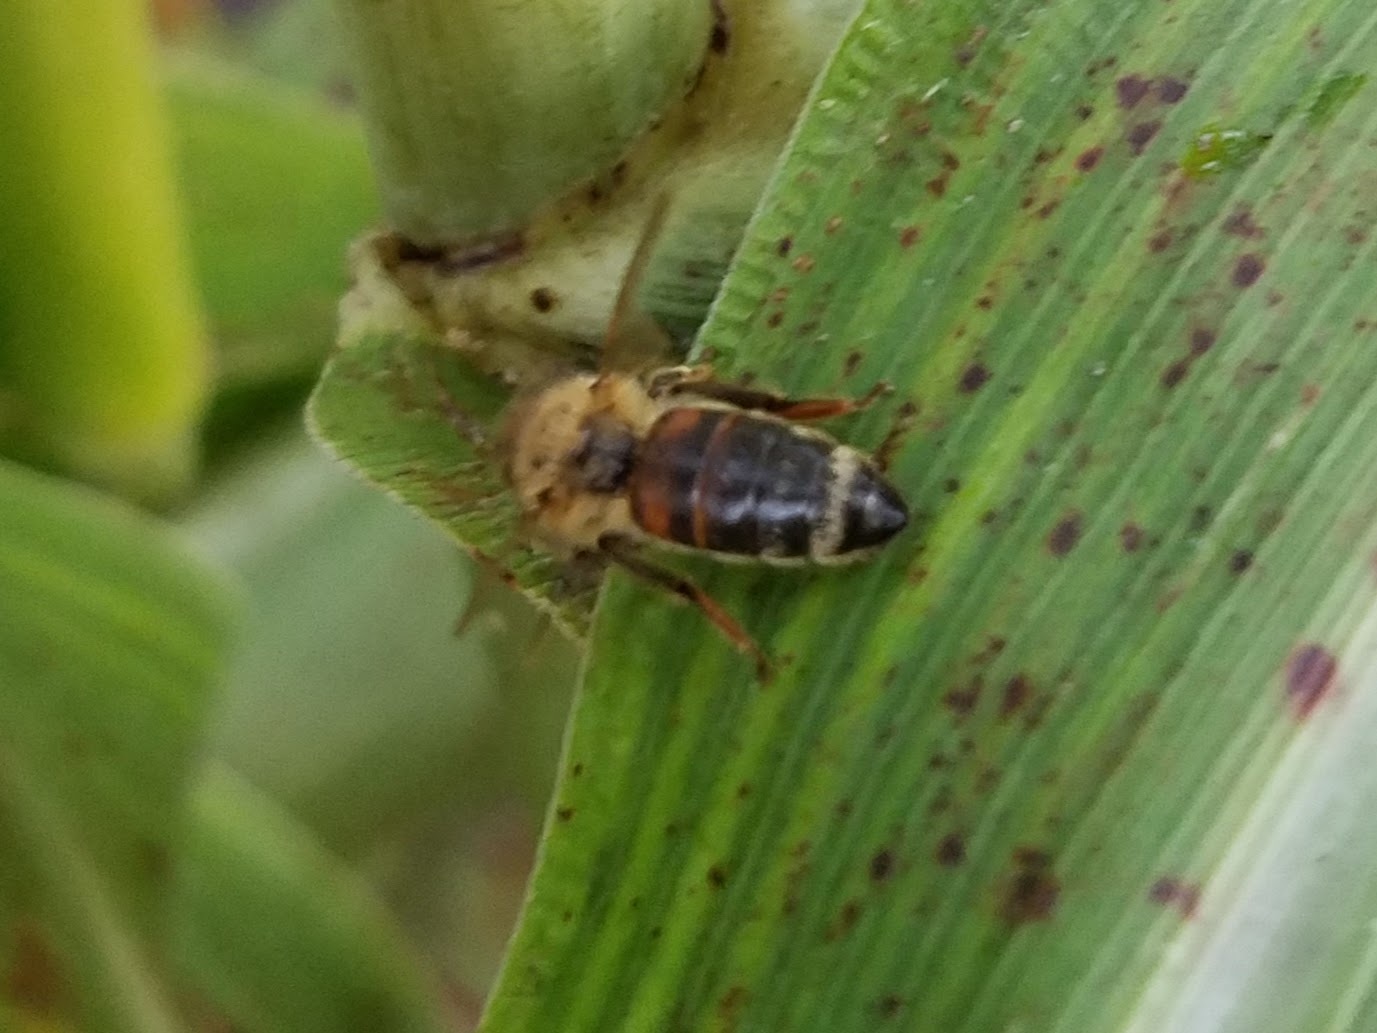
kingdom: Animalia
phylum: Arthropoda
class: Insecta
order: Hymenoptera
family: Apidae
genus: Apis
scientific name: Apis mellifera
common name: Honey bee
